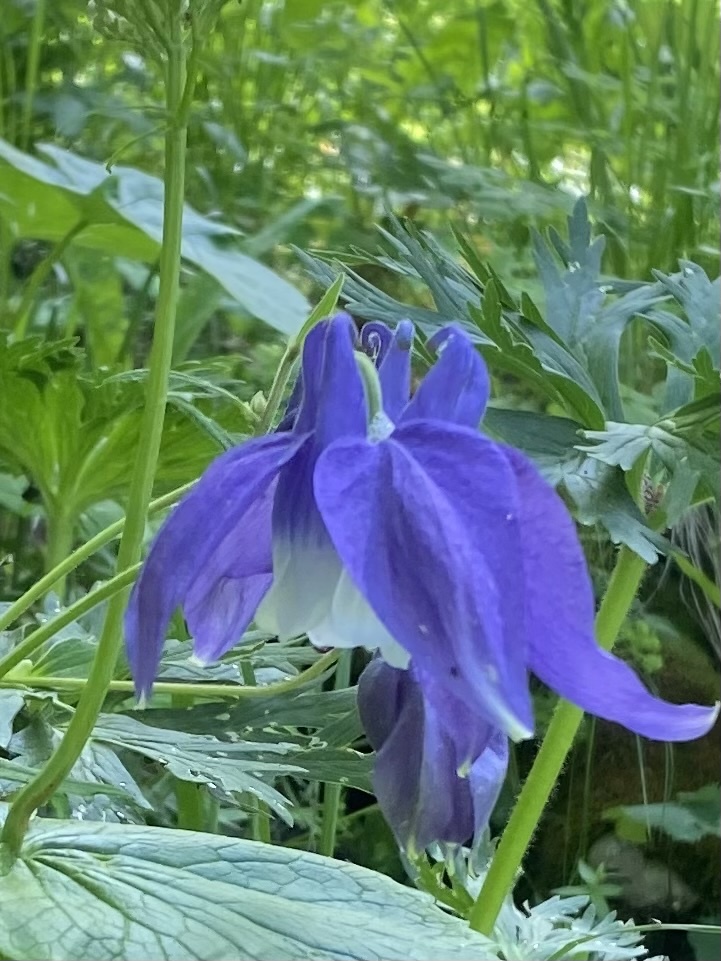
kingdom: Plantae
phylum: Tracheophyta
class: Magnoliopsida
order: Ranunculales
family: Ranunculaceae
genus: Aquilegia
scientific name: Aquilegia olympica
